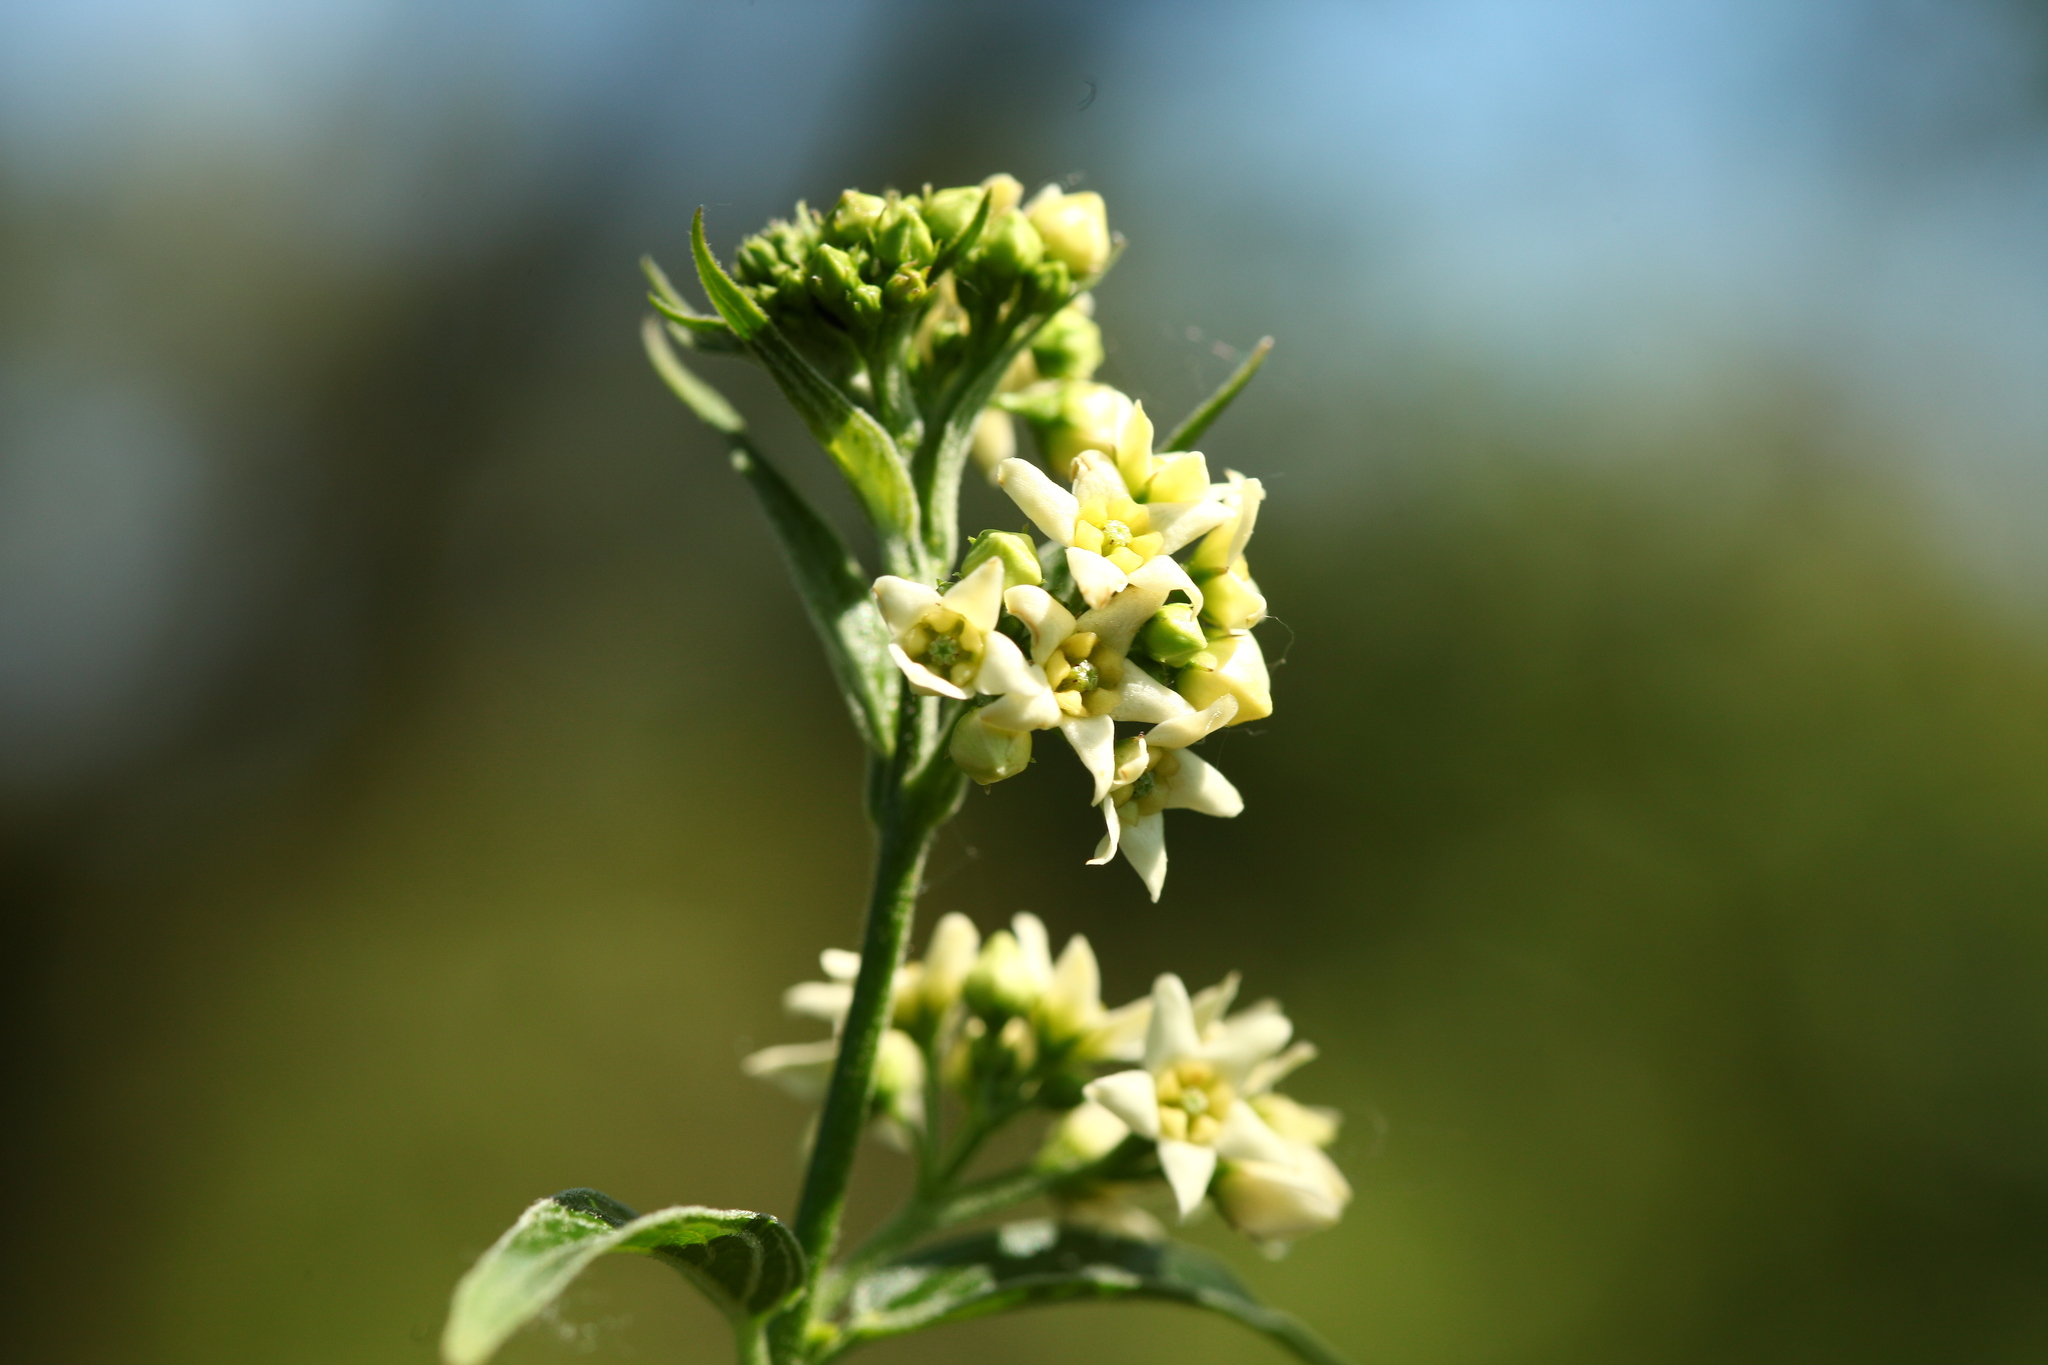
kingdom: Plantae
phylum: Tracheophyta
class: Magnoliopsida
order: Gentianales
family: Apocynaceae
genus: Vincetoxicum
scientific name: Vincetoxicum hirundinaria
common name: White swallowwort
